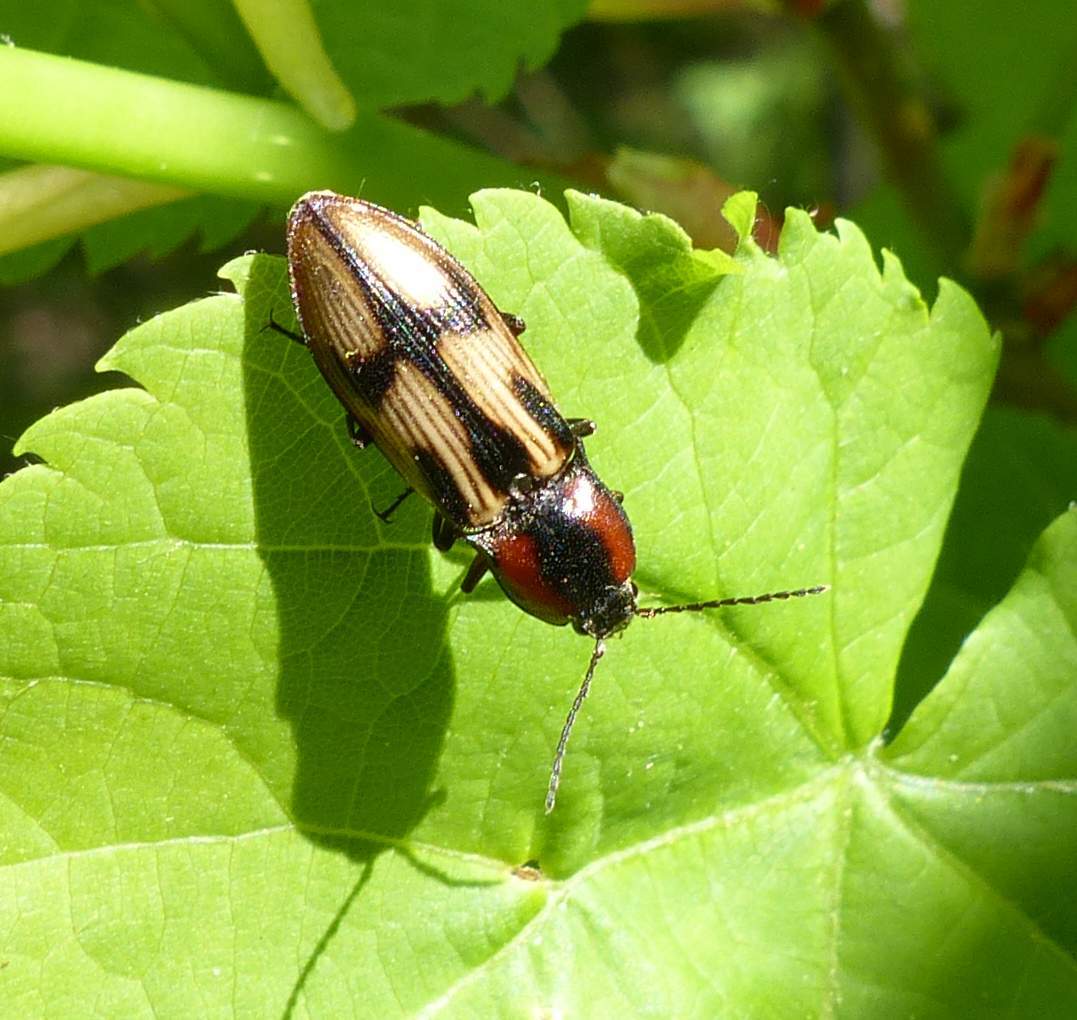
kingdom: Animalia
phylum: Arthropoda
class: Insecta
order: Coleoptera
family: Elateridae
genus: Selatosomus
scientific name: Selatosomus pulcher
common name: Noble click beetle
